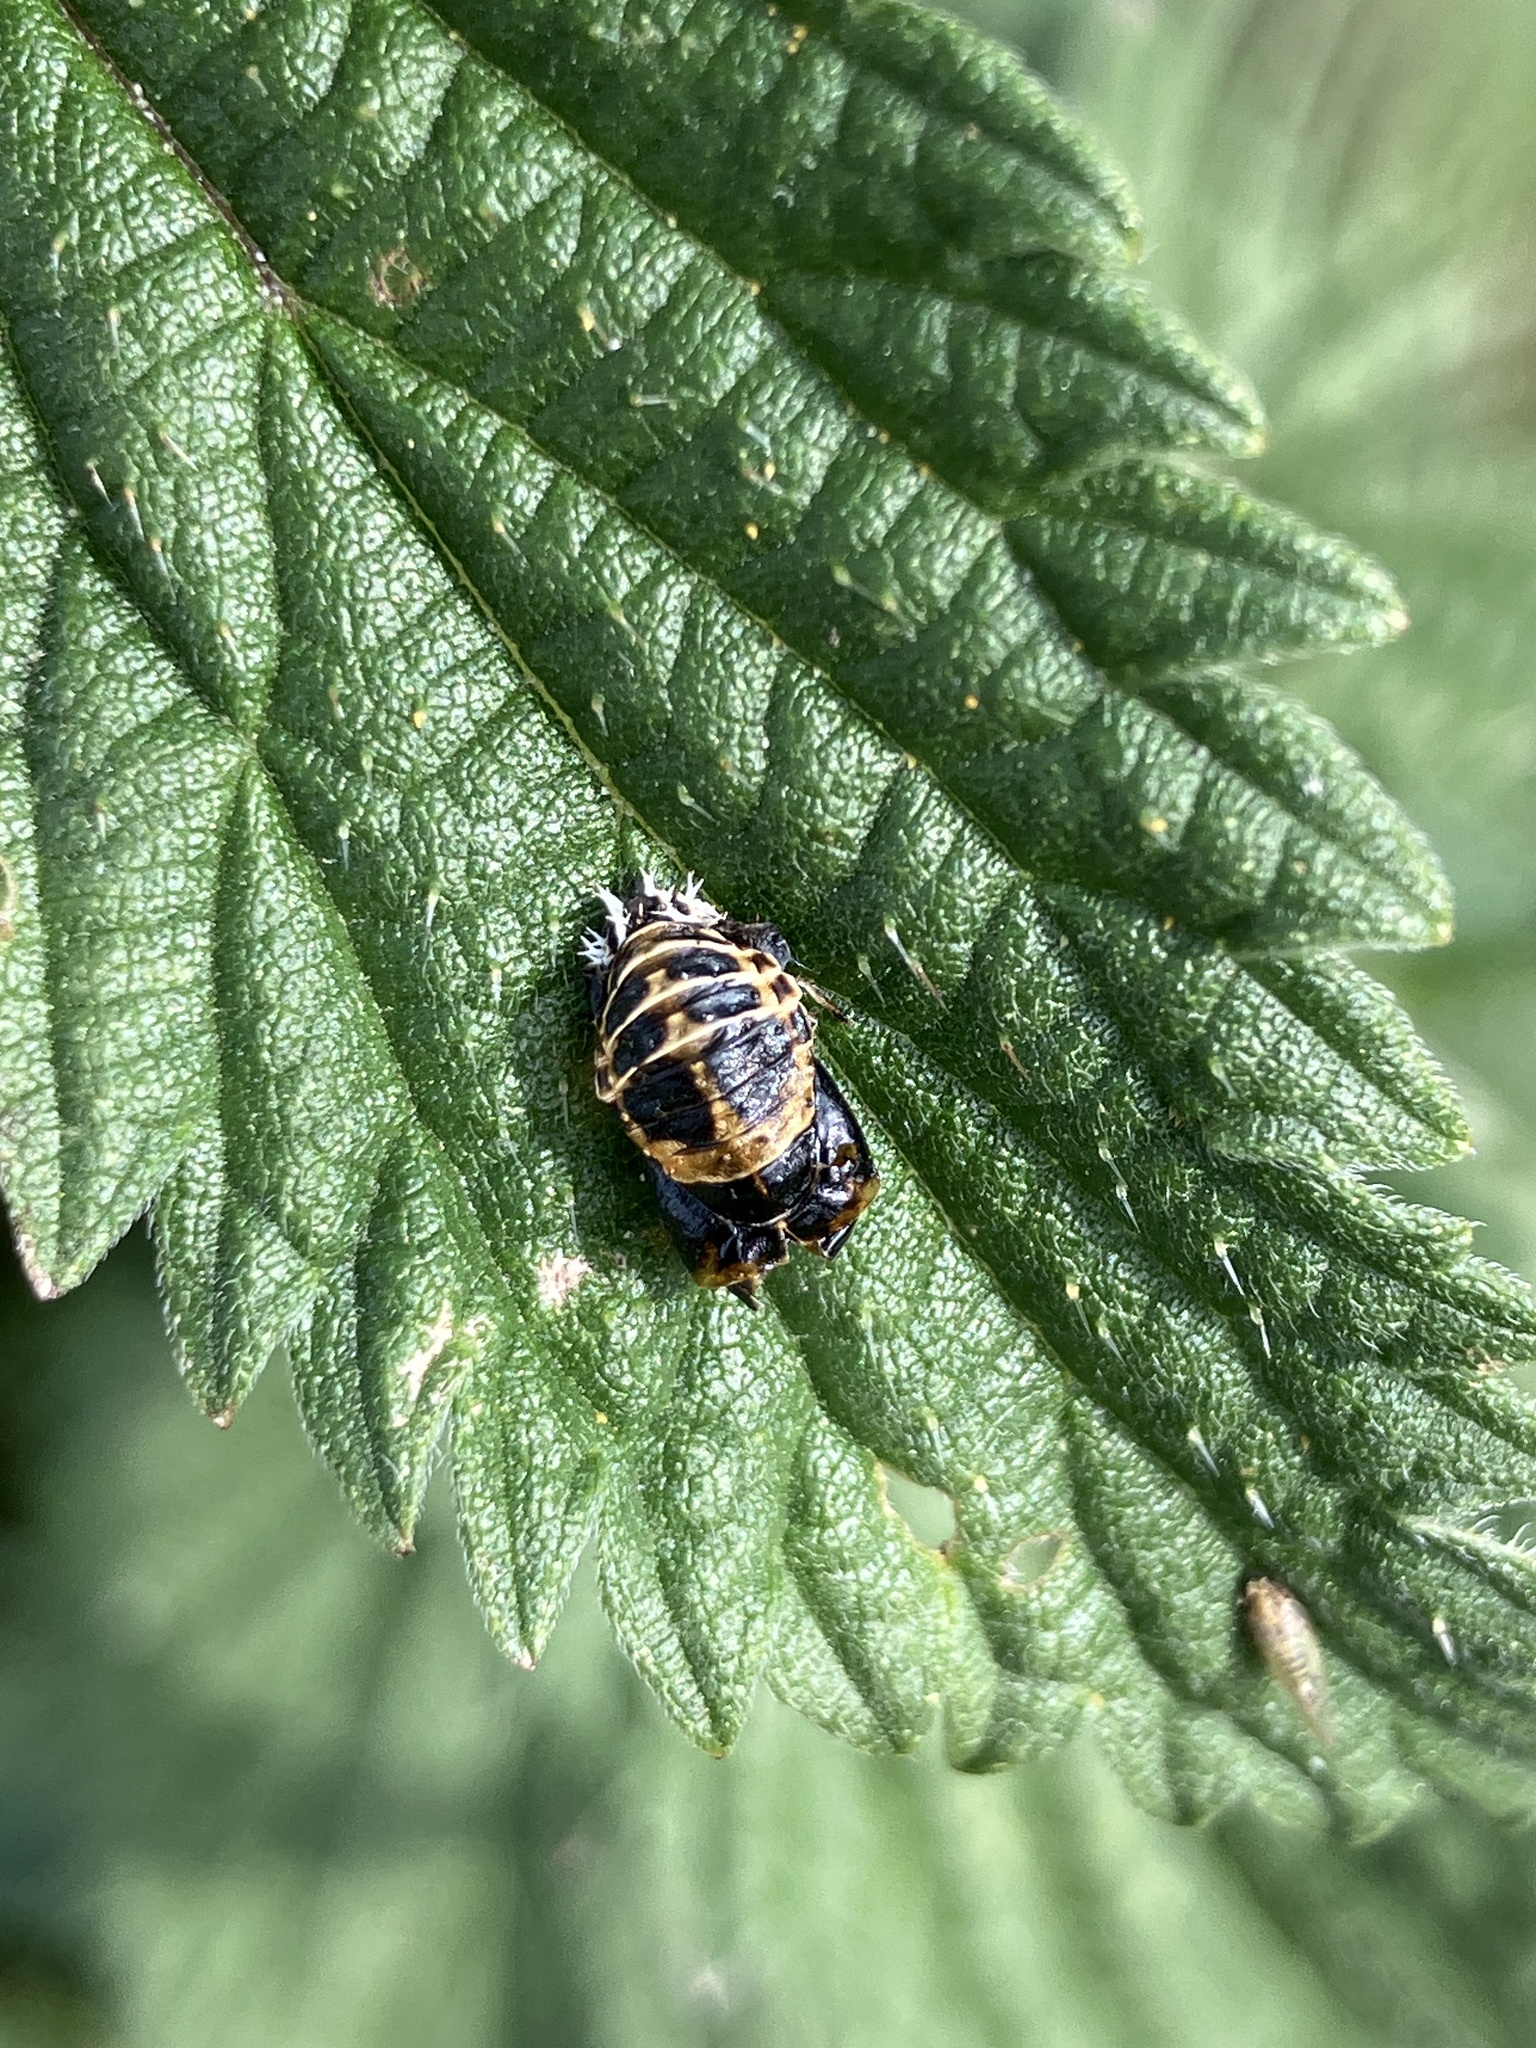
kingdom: Animalia
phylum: Arthropoda
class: Insecta
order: Coleoptera
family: Coccinellidae
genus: Harmonia
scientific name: Harmonia axyridis
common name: Harlequin ladybird
